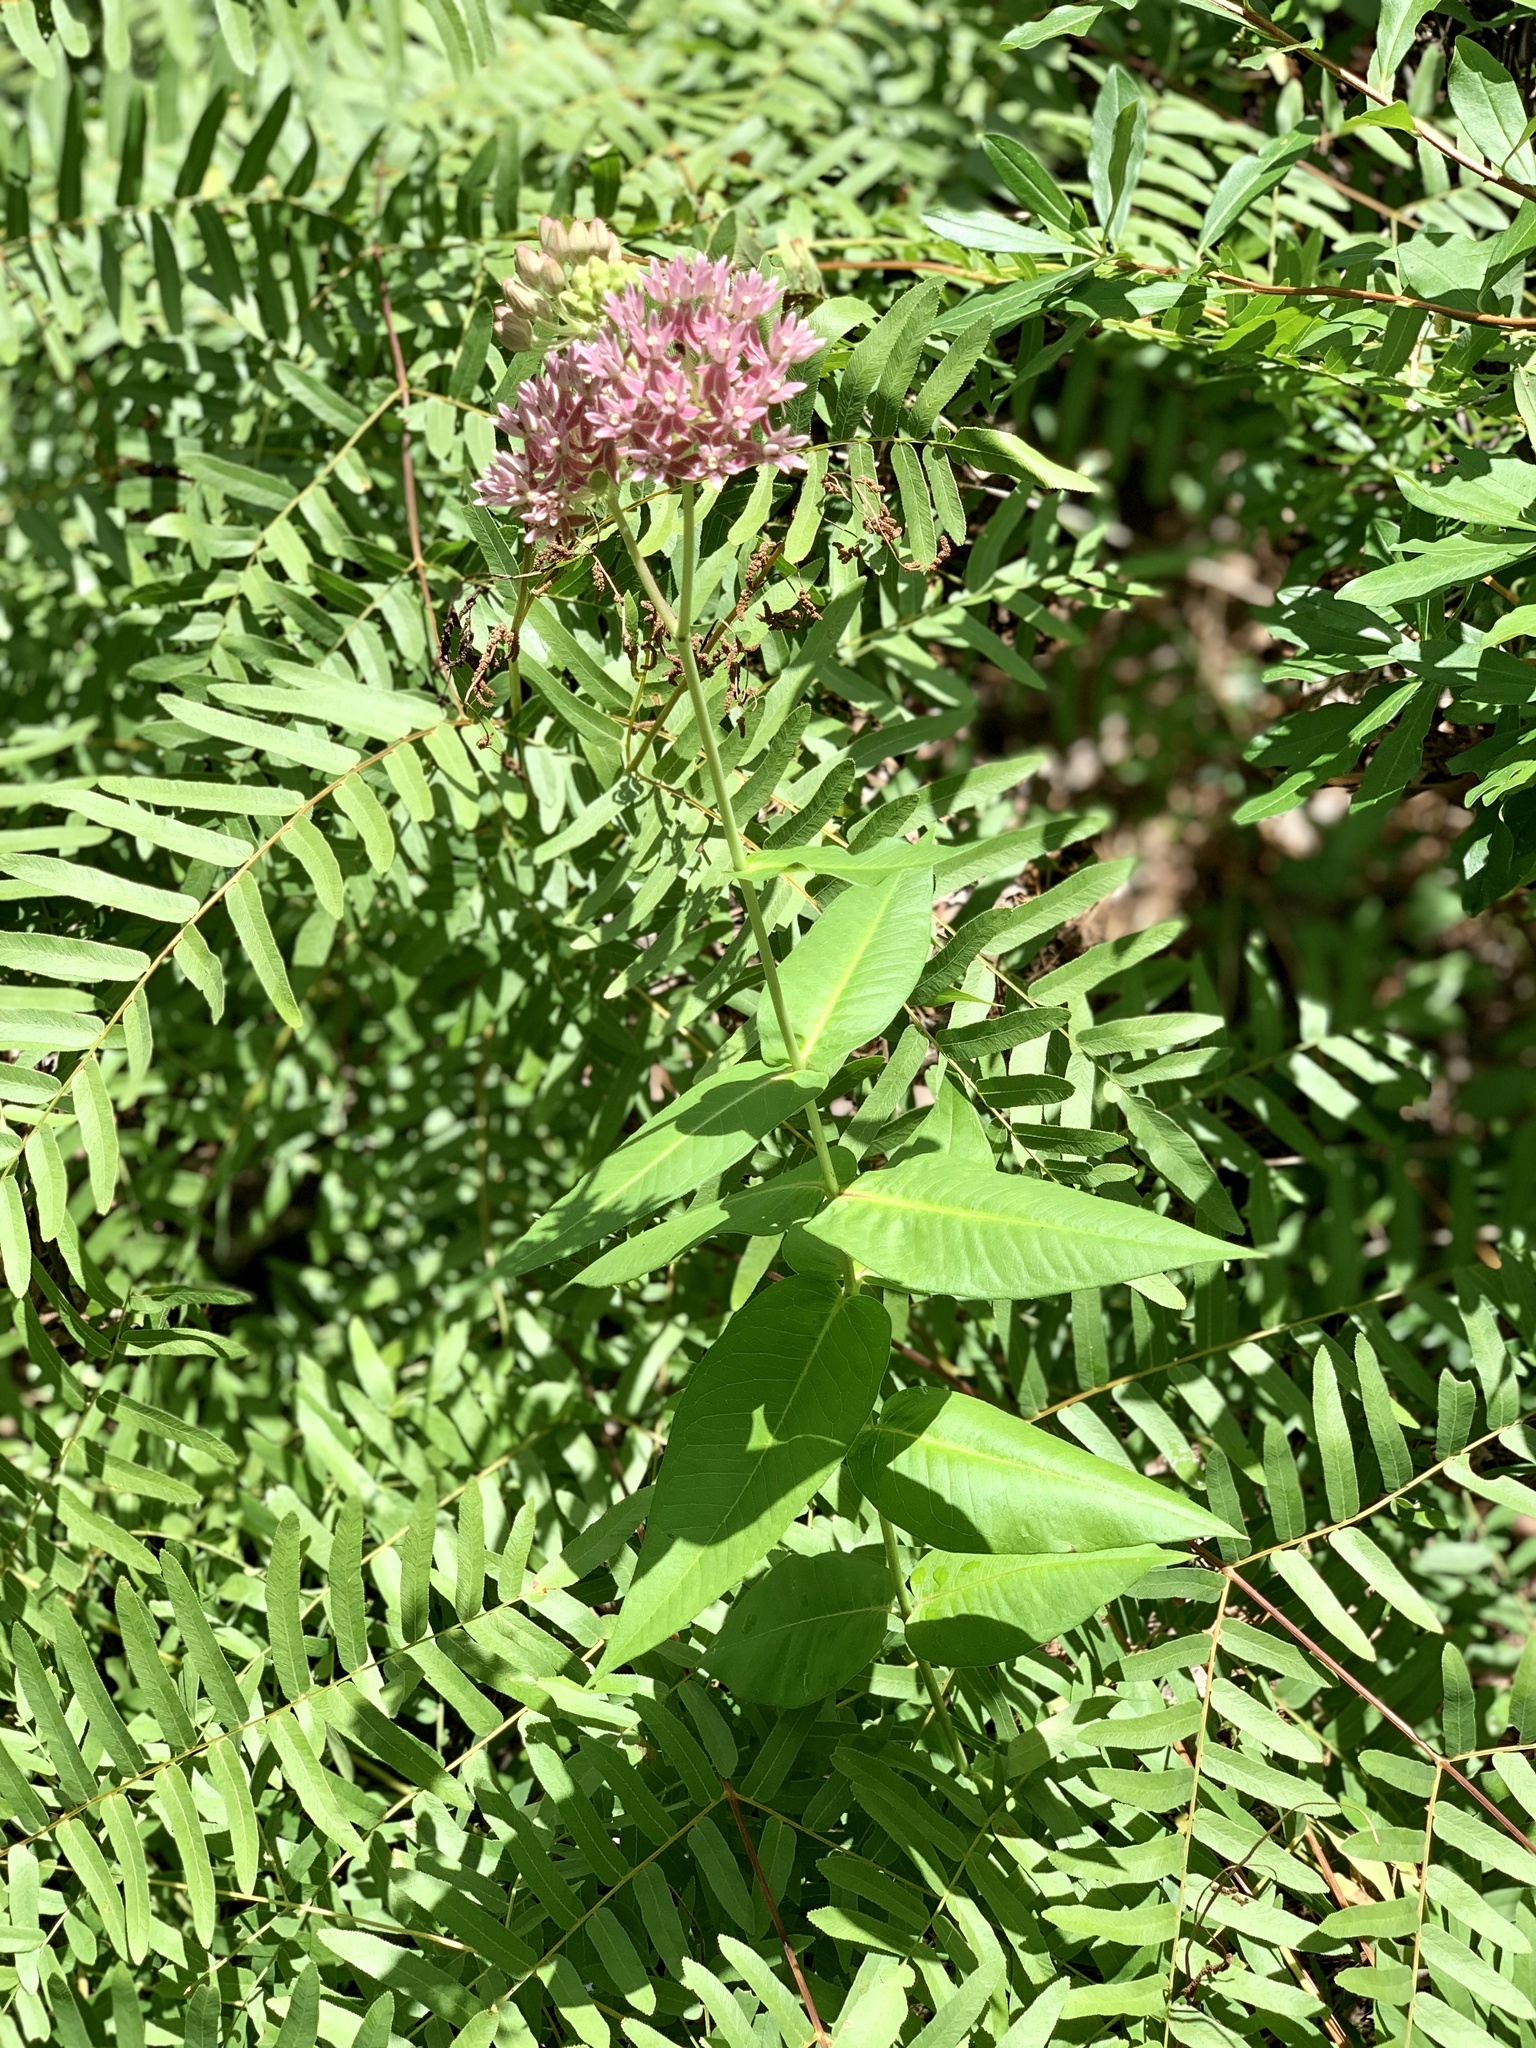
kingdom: Plantae
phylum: Tracheophyta
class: Magnoliopsida
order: Gentianales
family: Apocynaceae
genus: Asclepias
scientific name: Asclepias rubra
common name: Red milkweed
